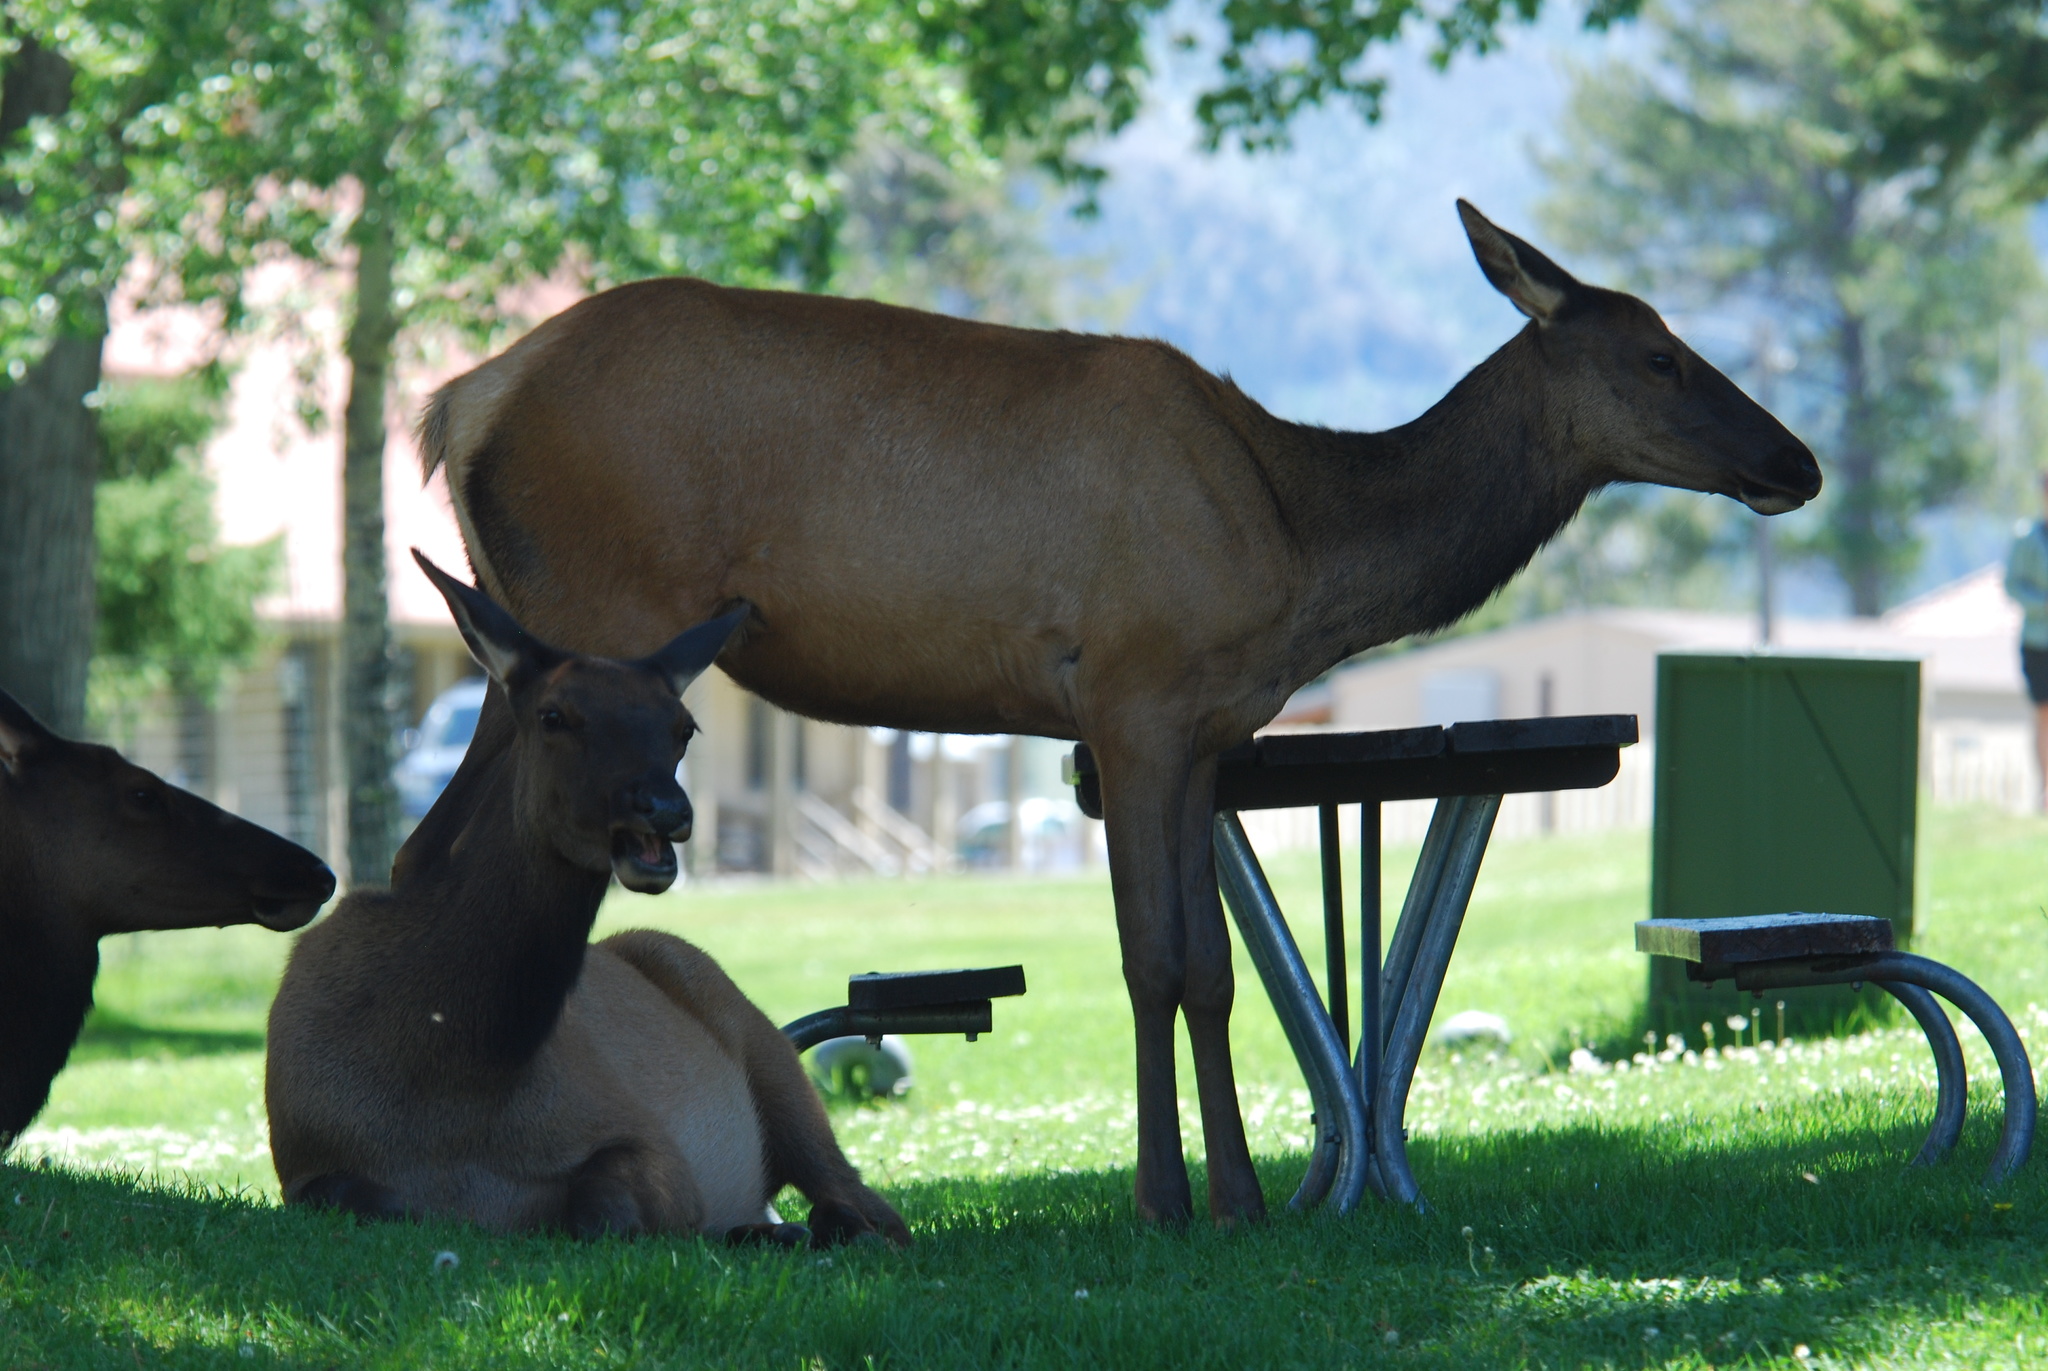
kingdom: Animalia
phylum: Chordata
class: Mammalia
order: Artiodactyla
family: Cervidae
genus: Cervus
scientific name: Cervus elaphus
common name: Red deer
